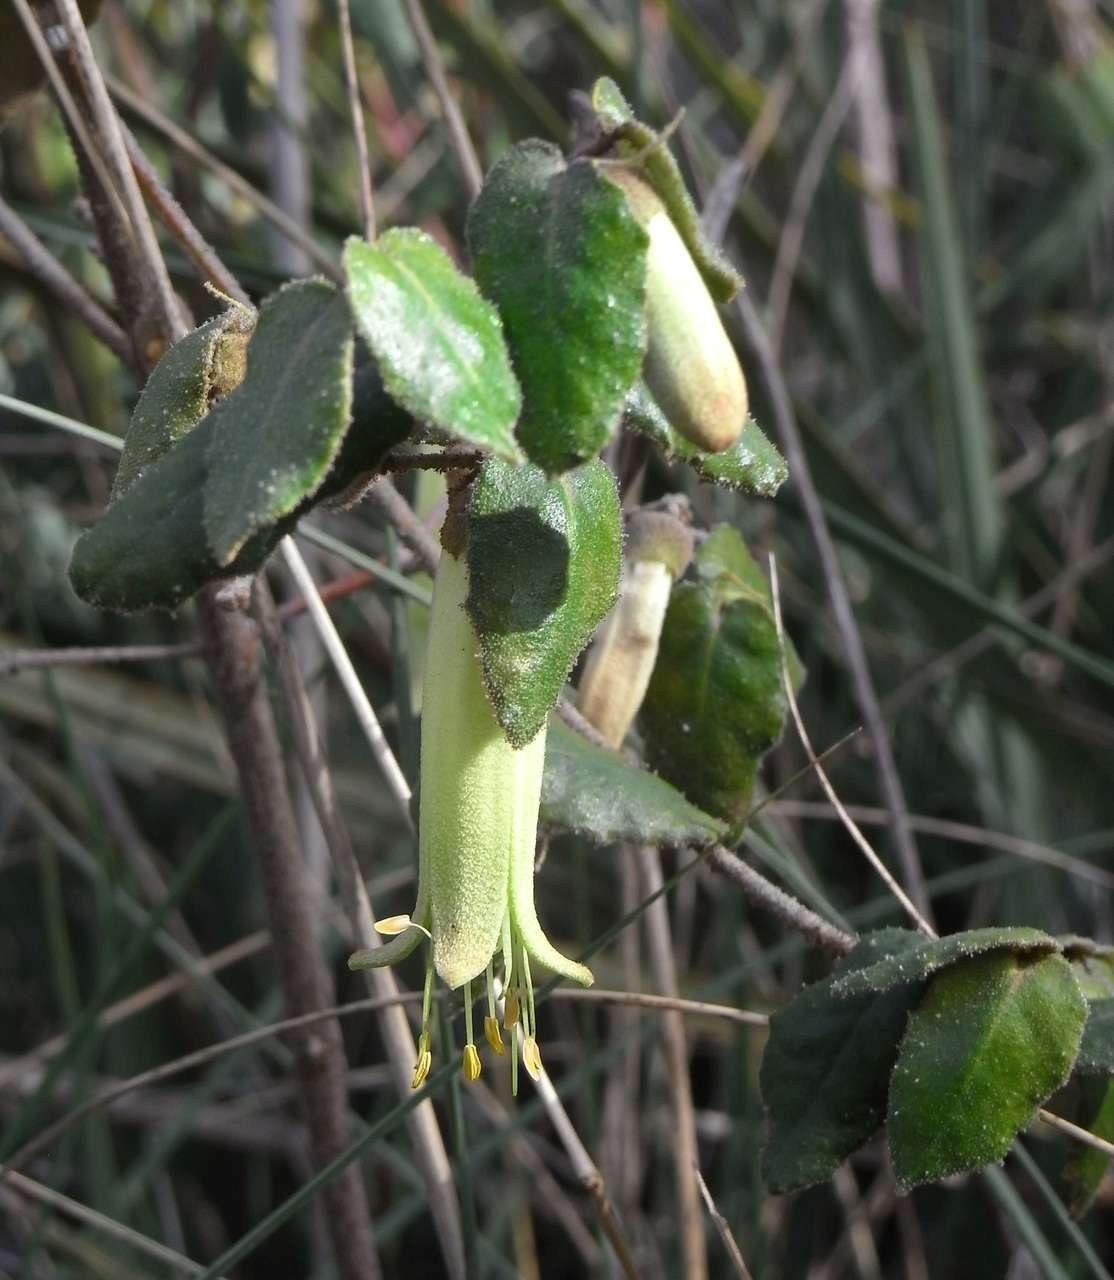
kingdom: Plantae
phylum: Tracheophyta
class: Magnoliopsida
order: Sapindales
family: Rutaceae
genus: Correa
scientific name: Correa reflexa
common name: Common correa
